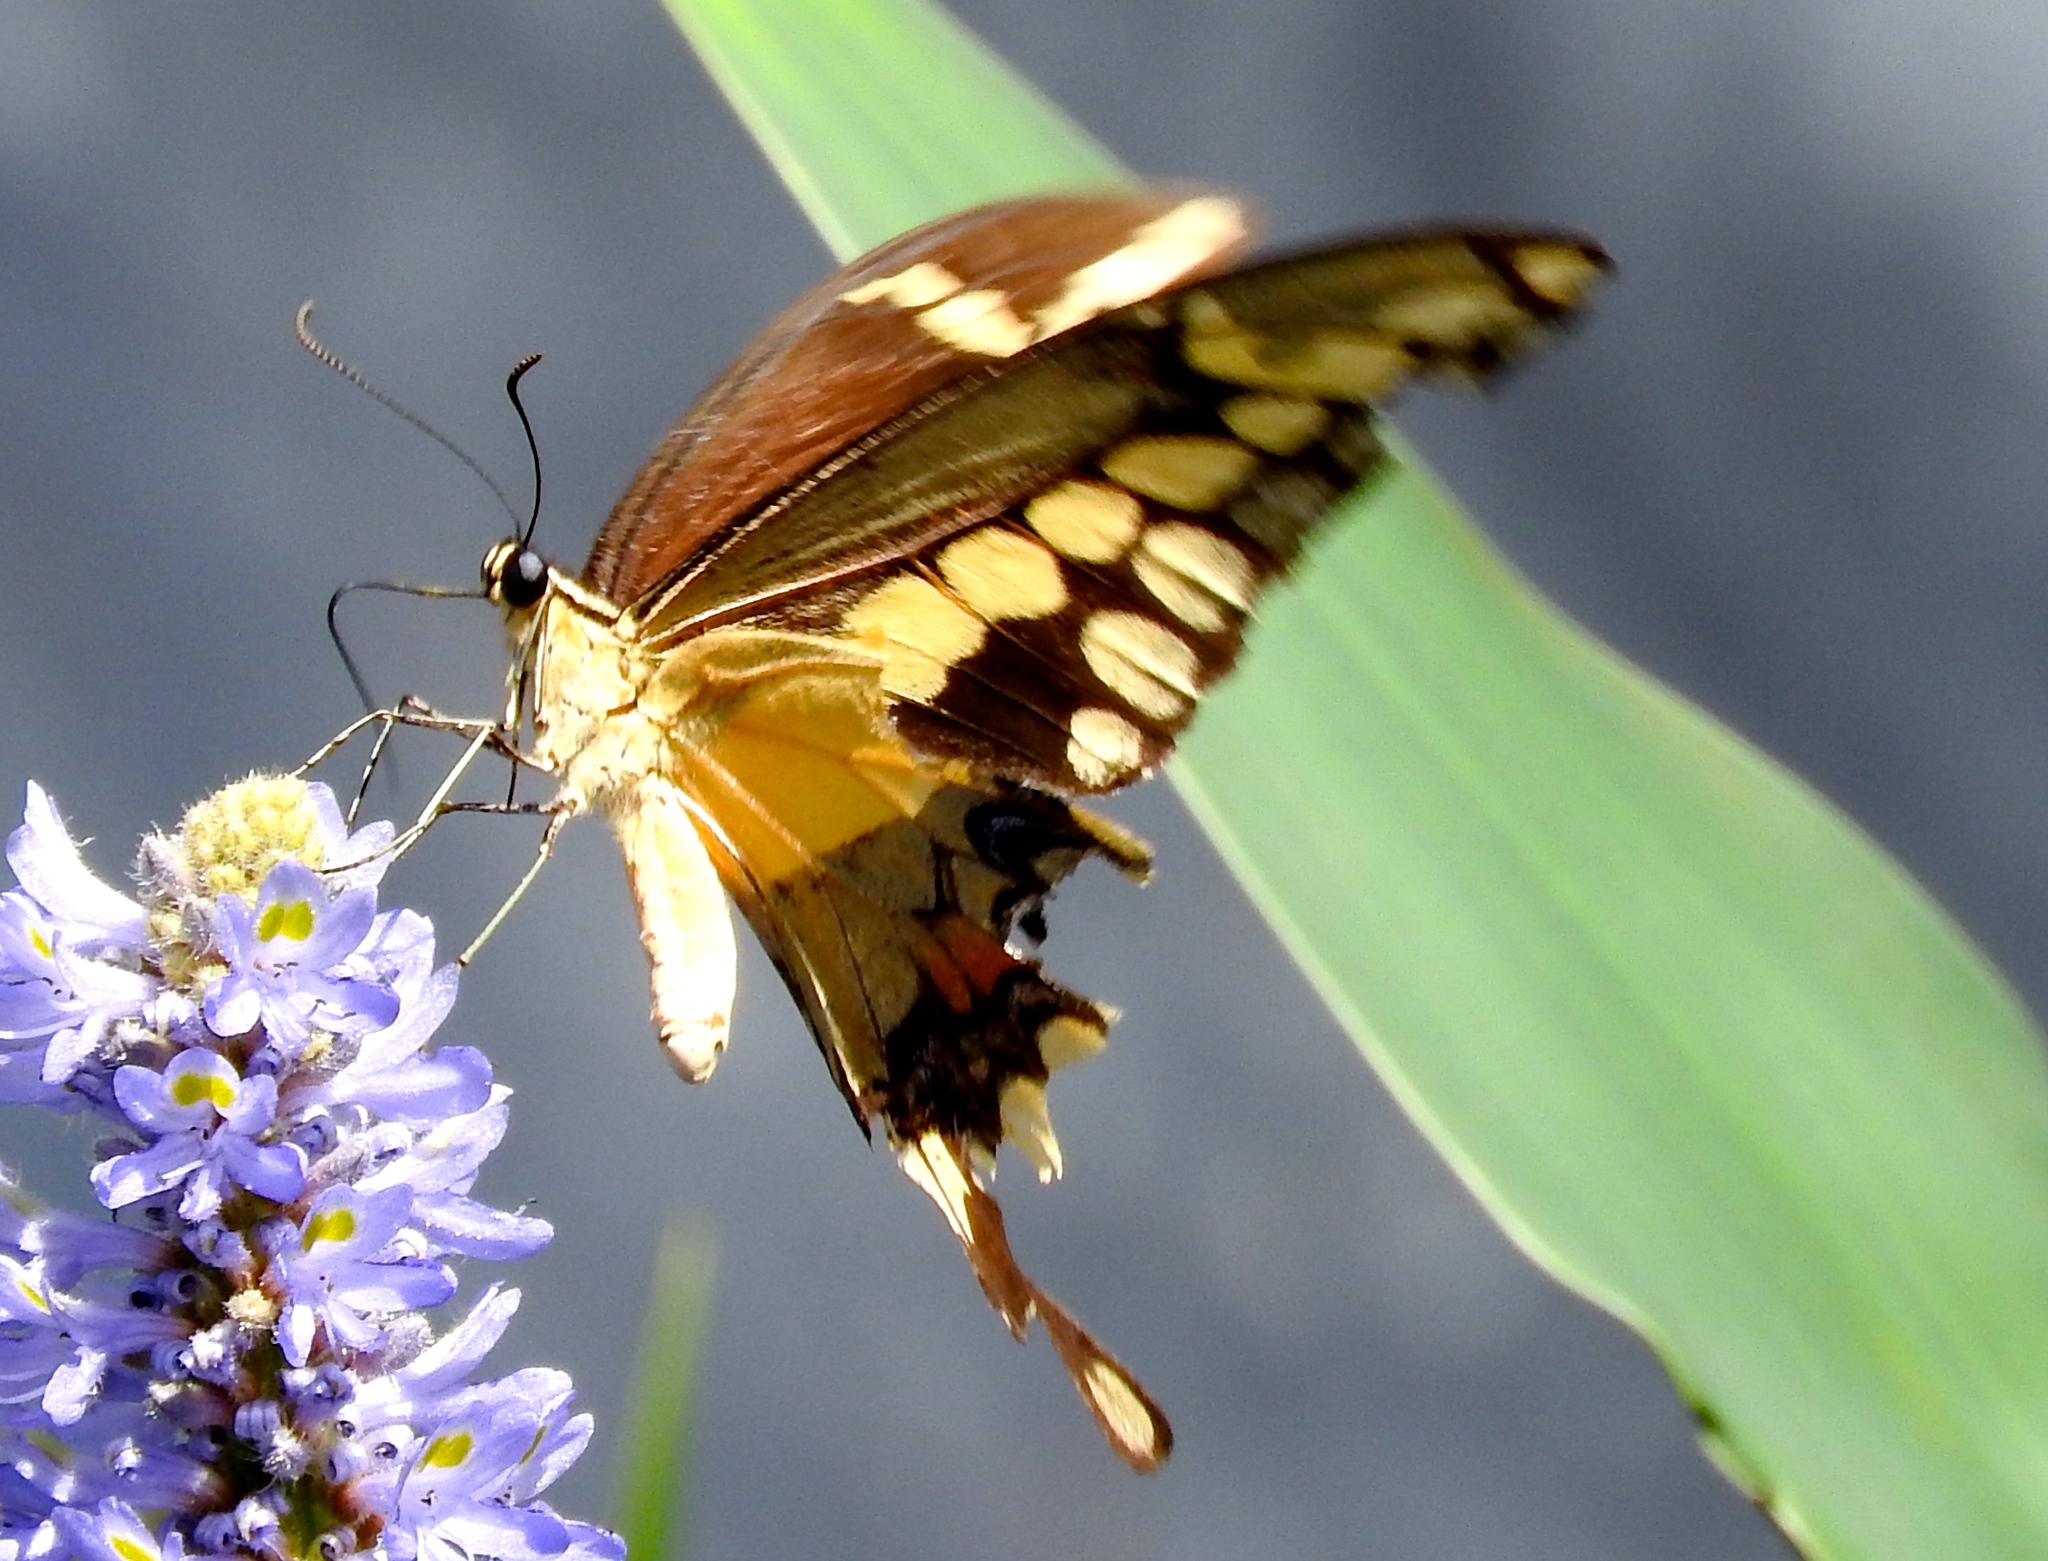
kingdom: Animalia
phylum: Arthropoda
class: Insecta
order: Lepidoptera
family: Papilionidae
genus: Papilio
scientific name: Papilio rumiko
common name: Western giant swallowtail
